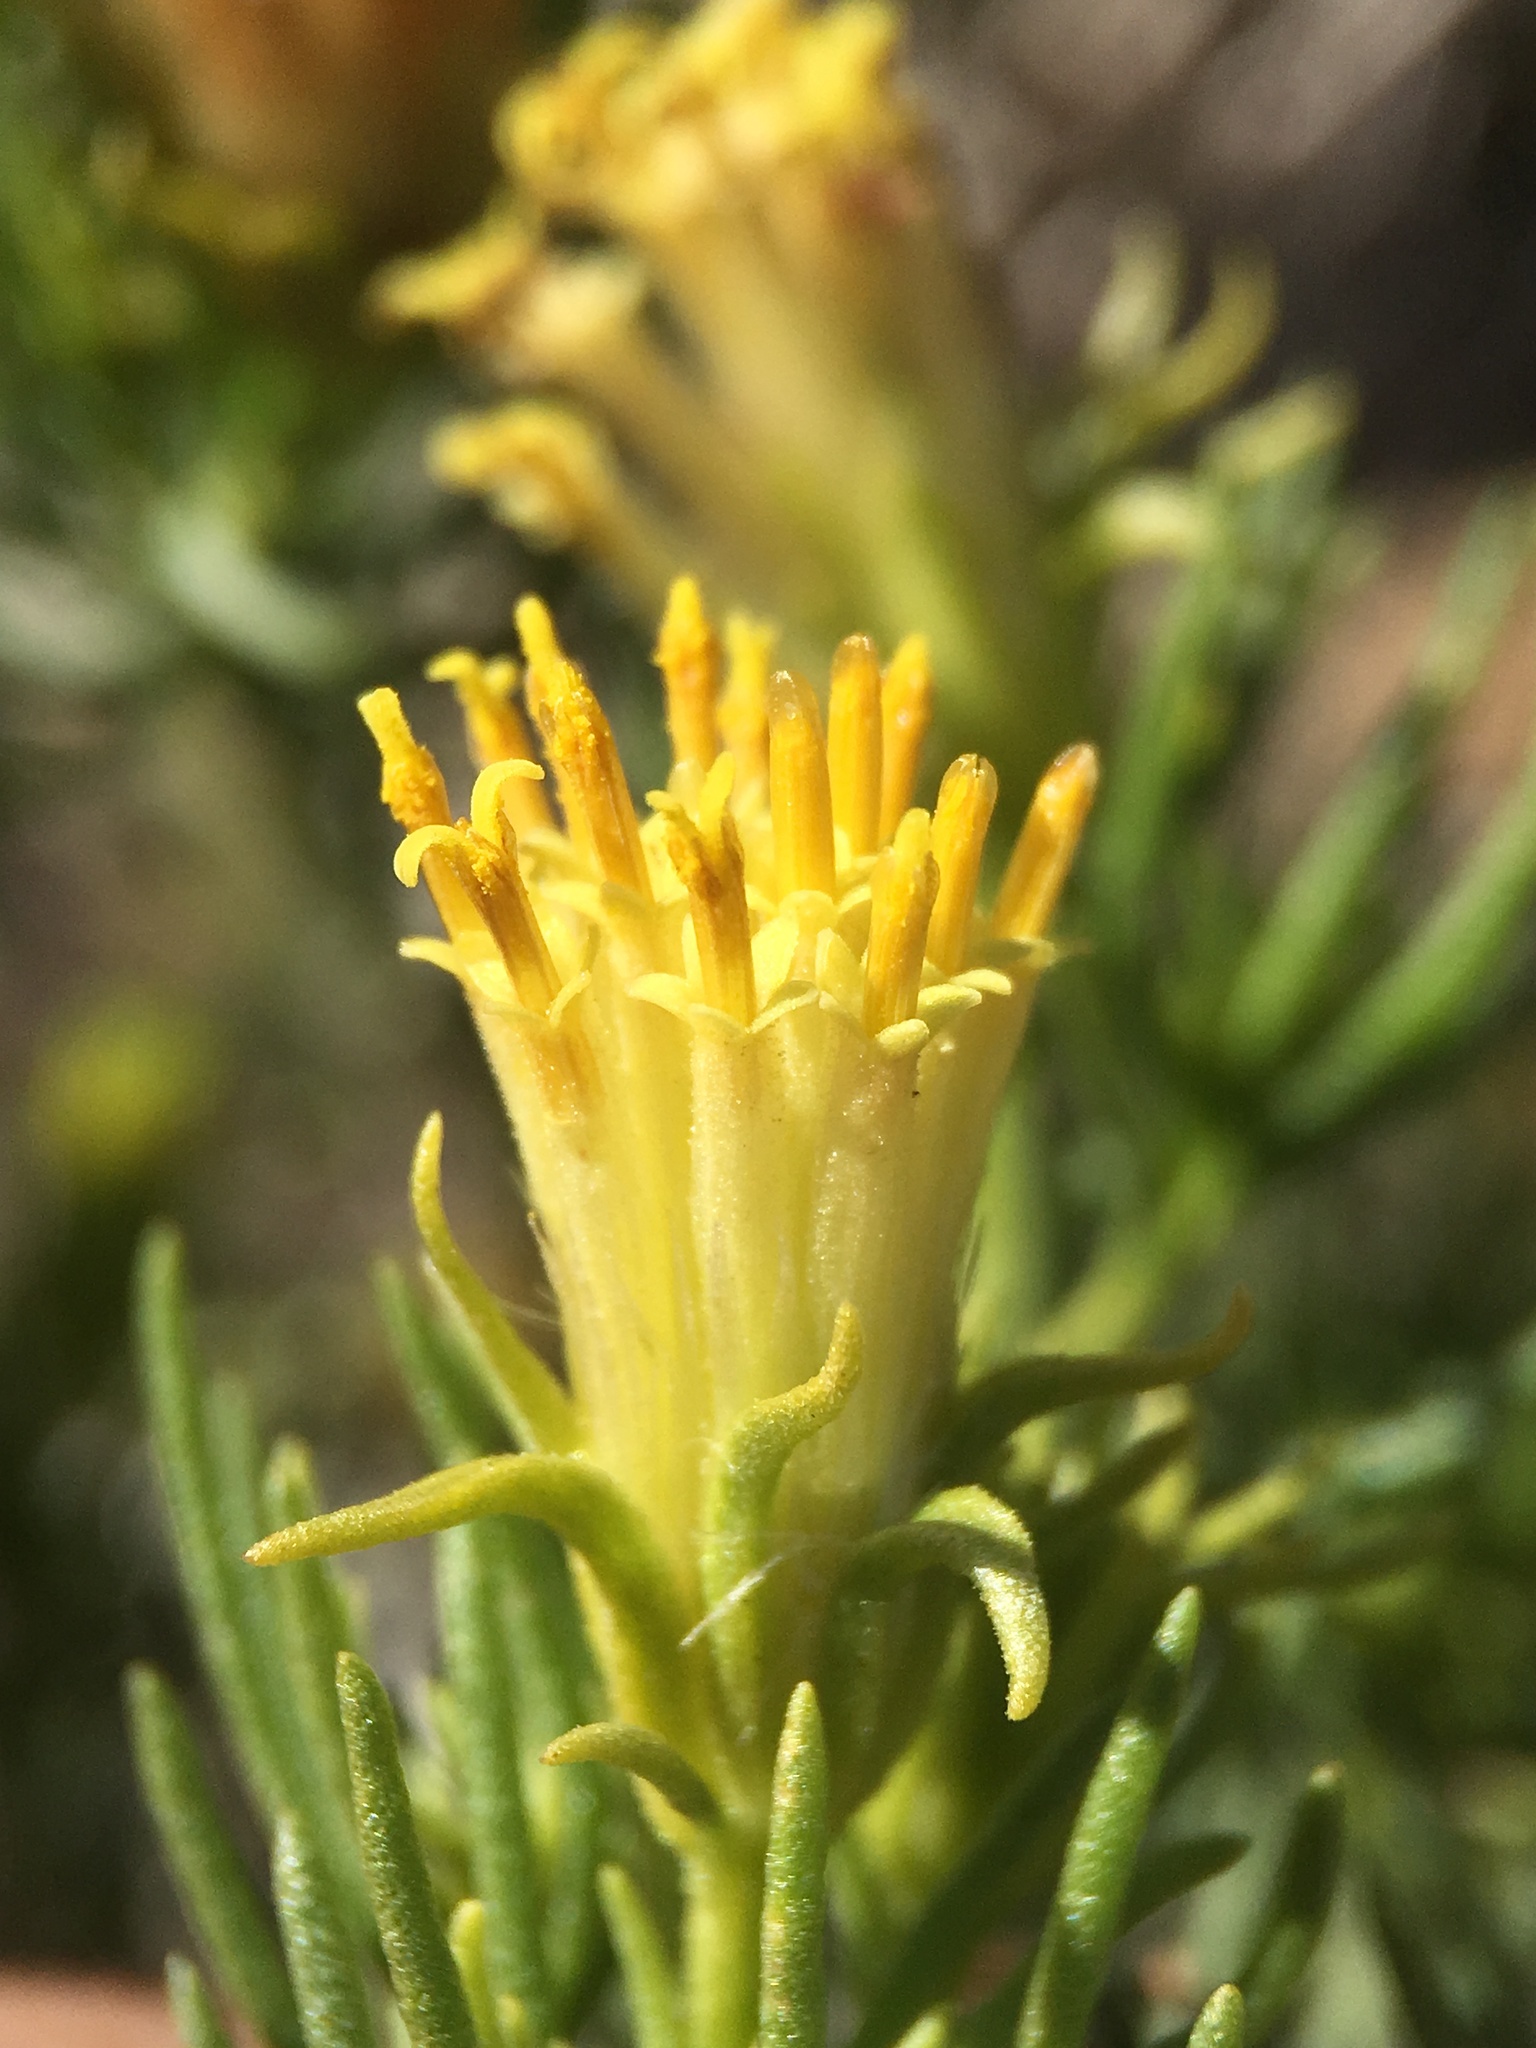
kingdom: Plantae
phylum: Tracheophyta
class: Magnoliopsida
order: Asterales
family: Asteraceae
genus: Peucephyllum
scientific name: Peucephyllum schottii
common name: Pygmy-cedar
